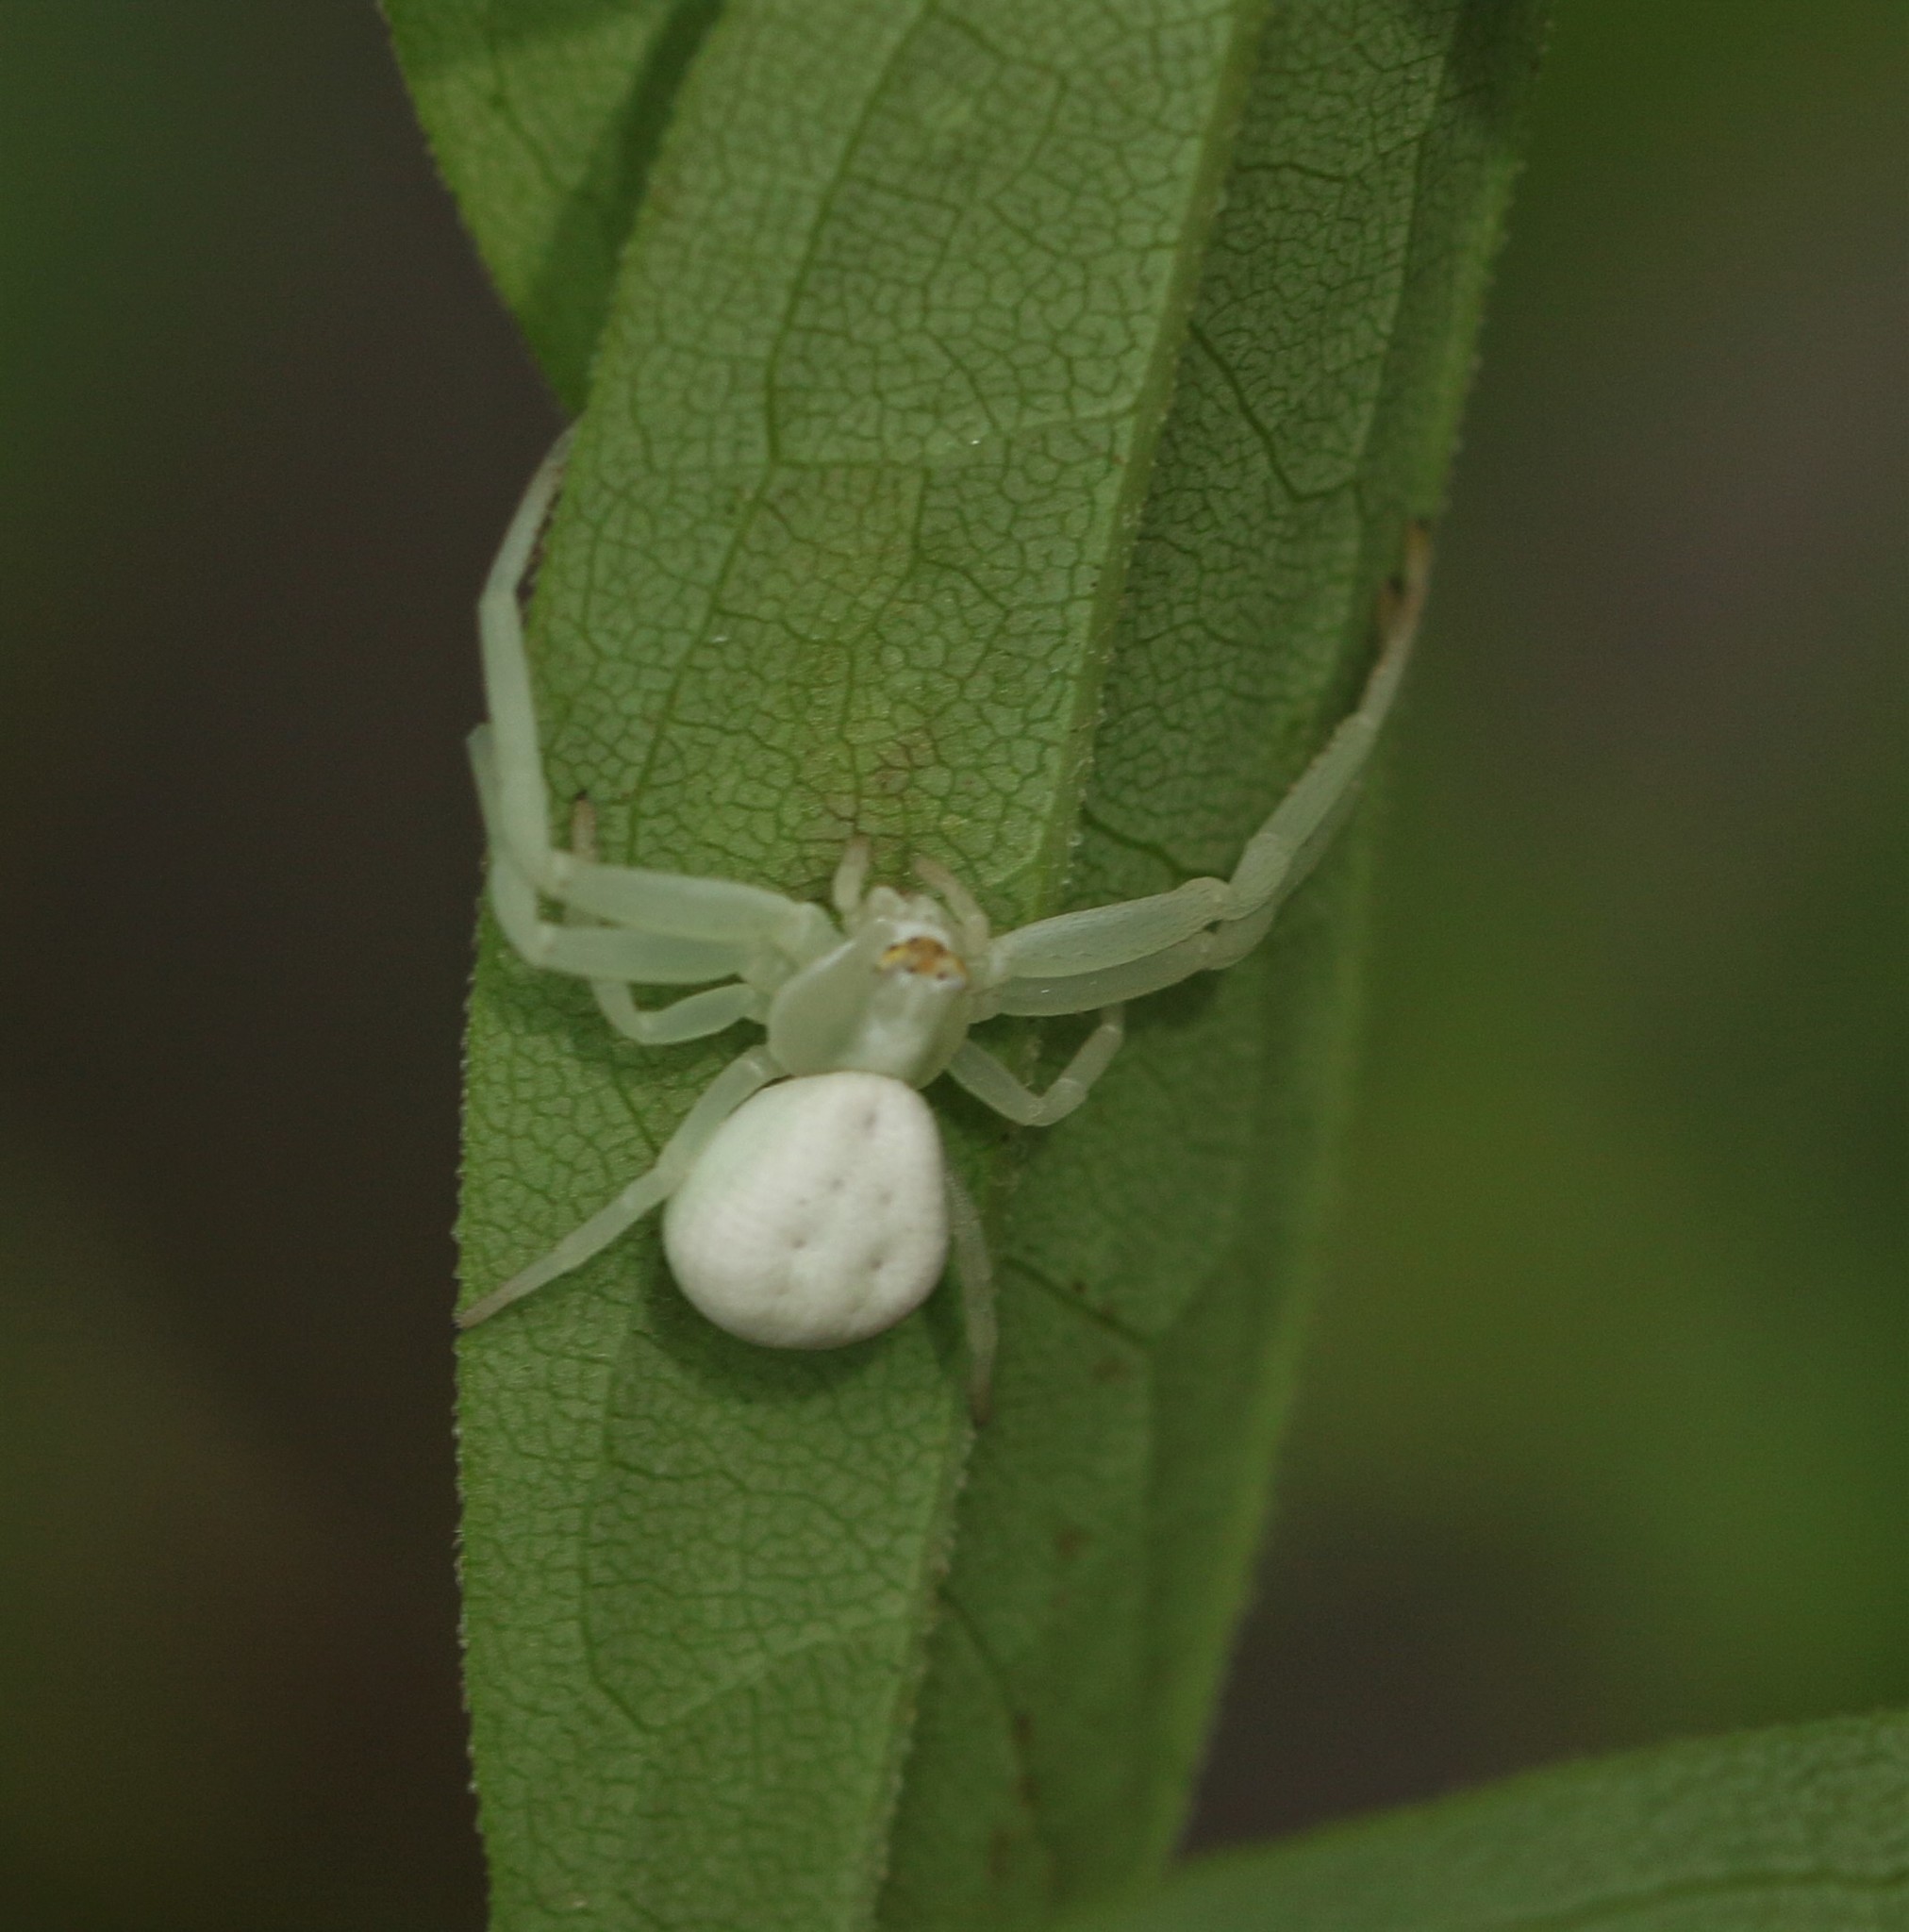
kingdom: Animalia
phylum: Arthropoda
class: Arachnida
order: Araneae
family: Thomisidae
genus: Misumena
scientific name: Misumena vatia
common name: Goldenrod crab spider
